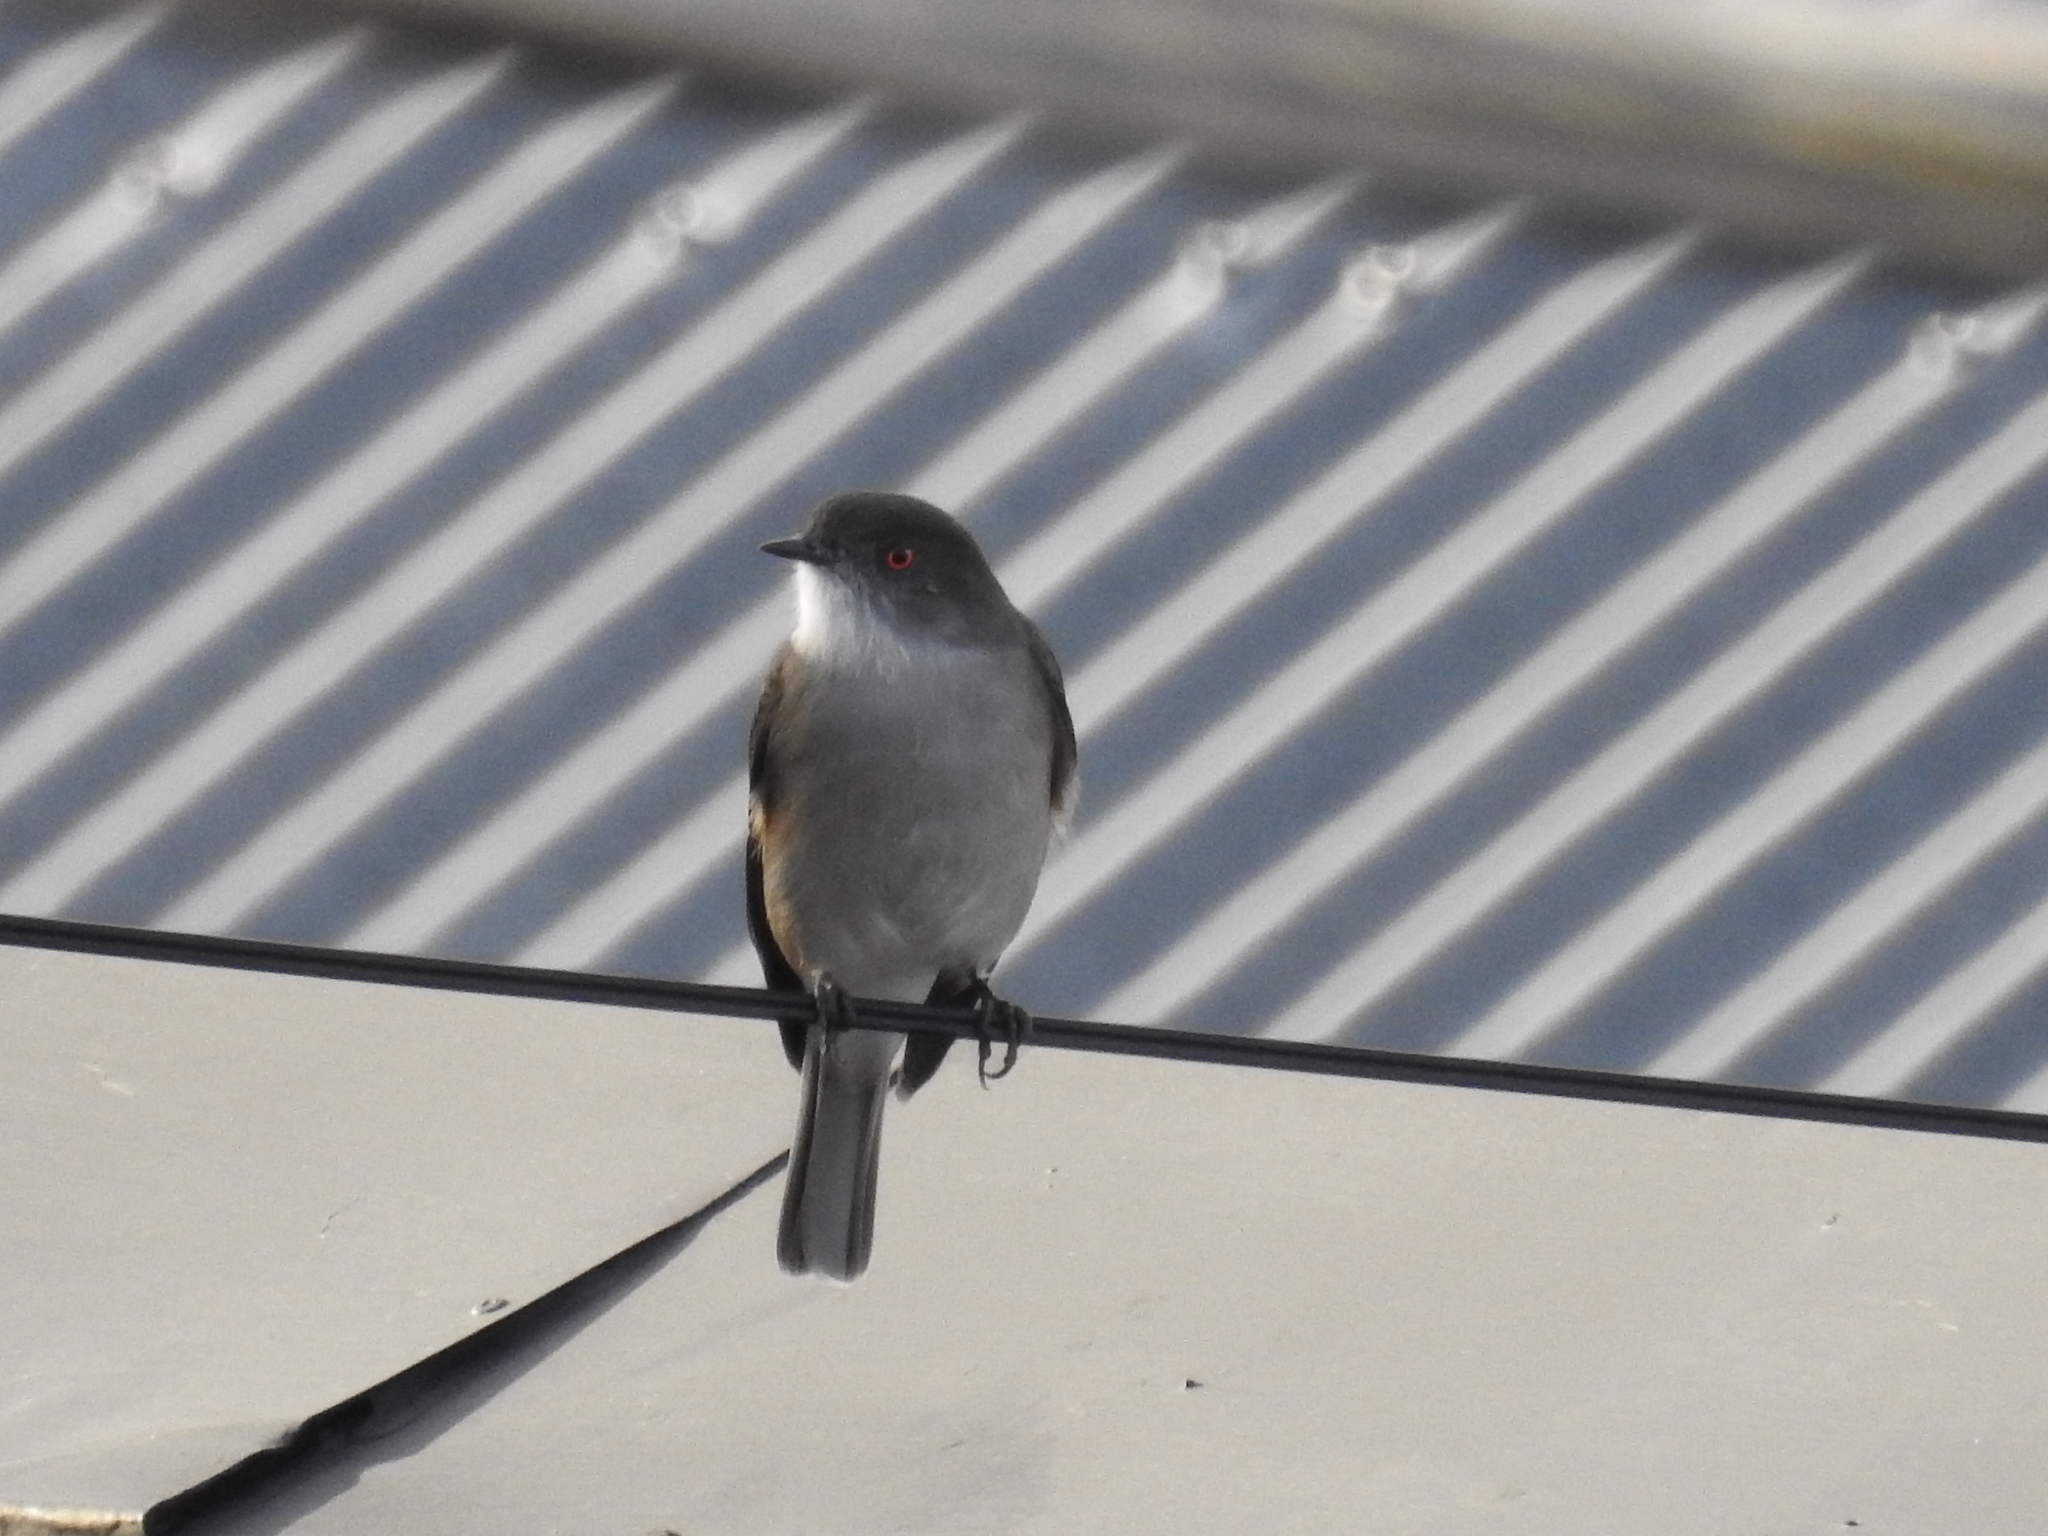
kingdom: Animalia
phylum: Chordata
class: Aves
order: Passeriformes
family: Tyrannidae
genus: Xolmis
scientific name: Xolmis pyrope
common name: Fire-eyed diucon
